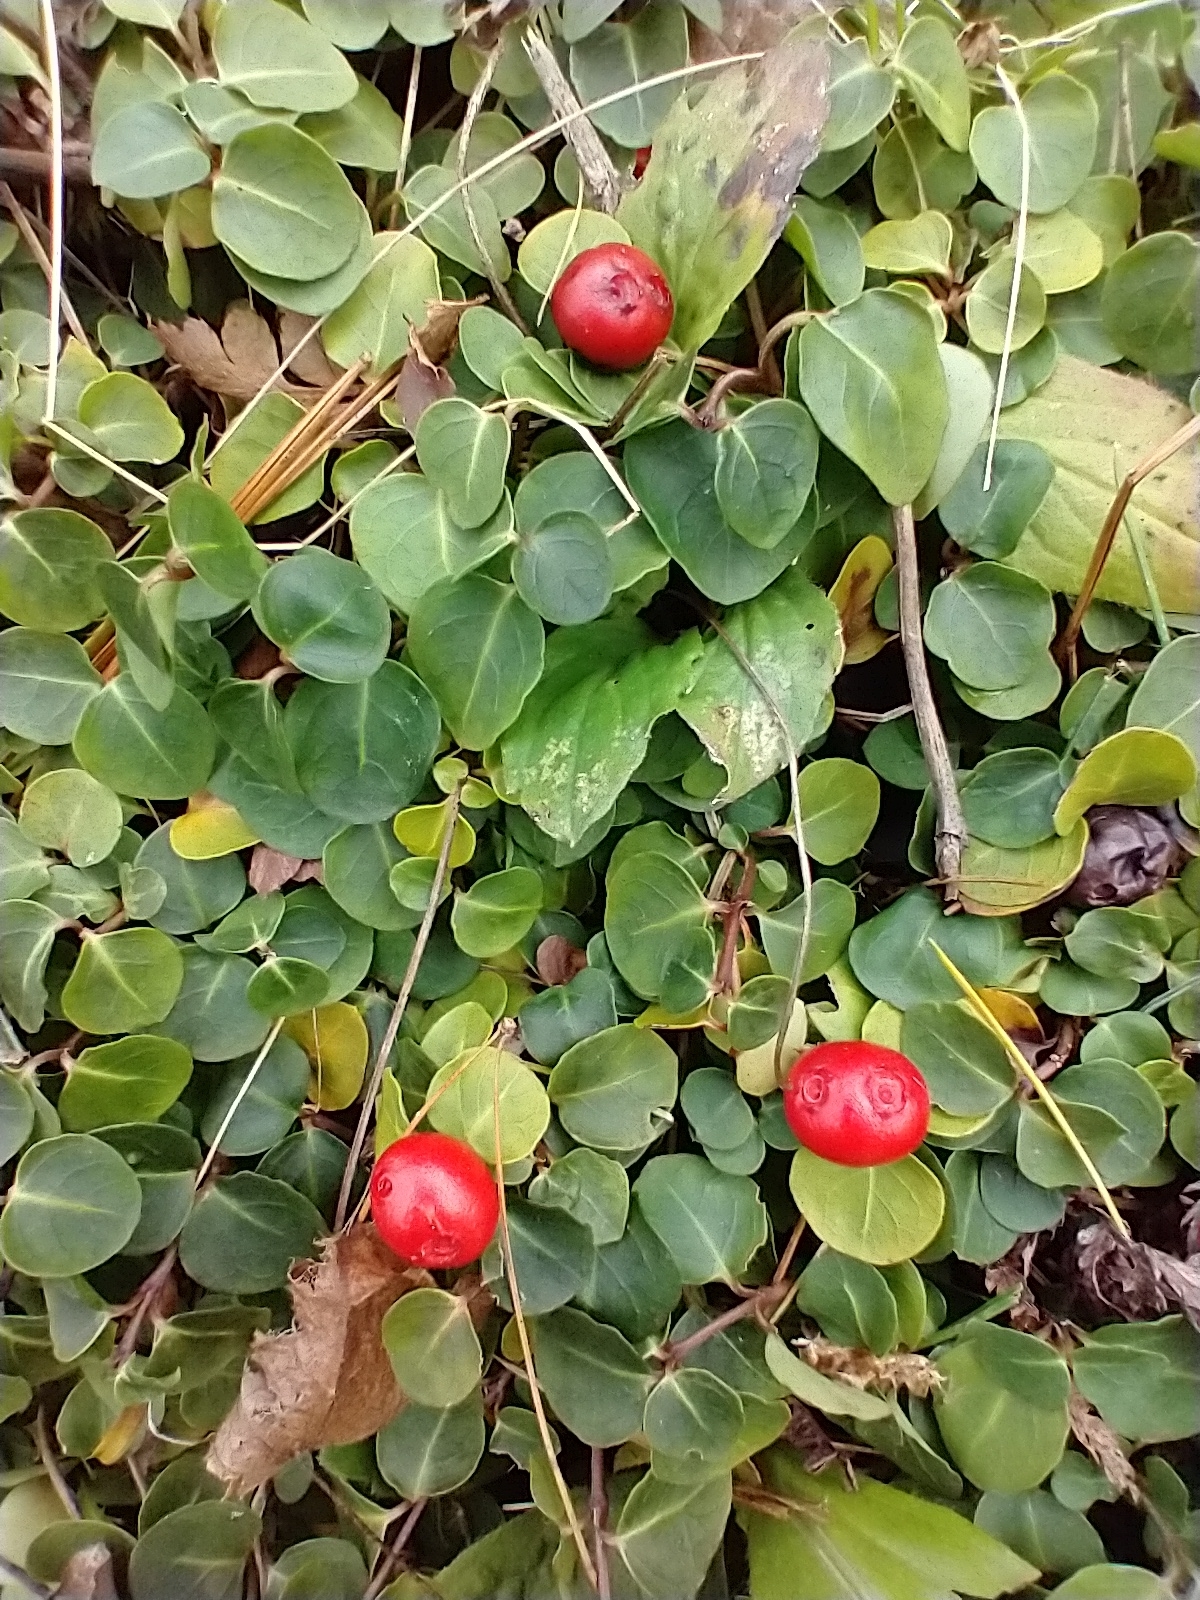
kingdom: Plantae
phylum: Tracheophyta
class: Magnoliopsida
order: Gentianales
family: Rubiaceae
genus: Mitchella
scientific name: Mitchella repens
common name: Partridge-berry
